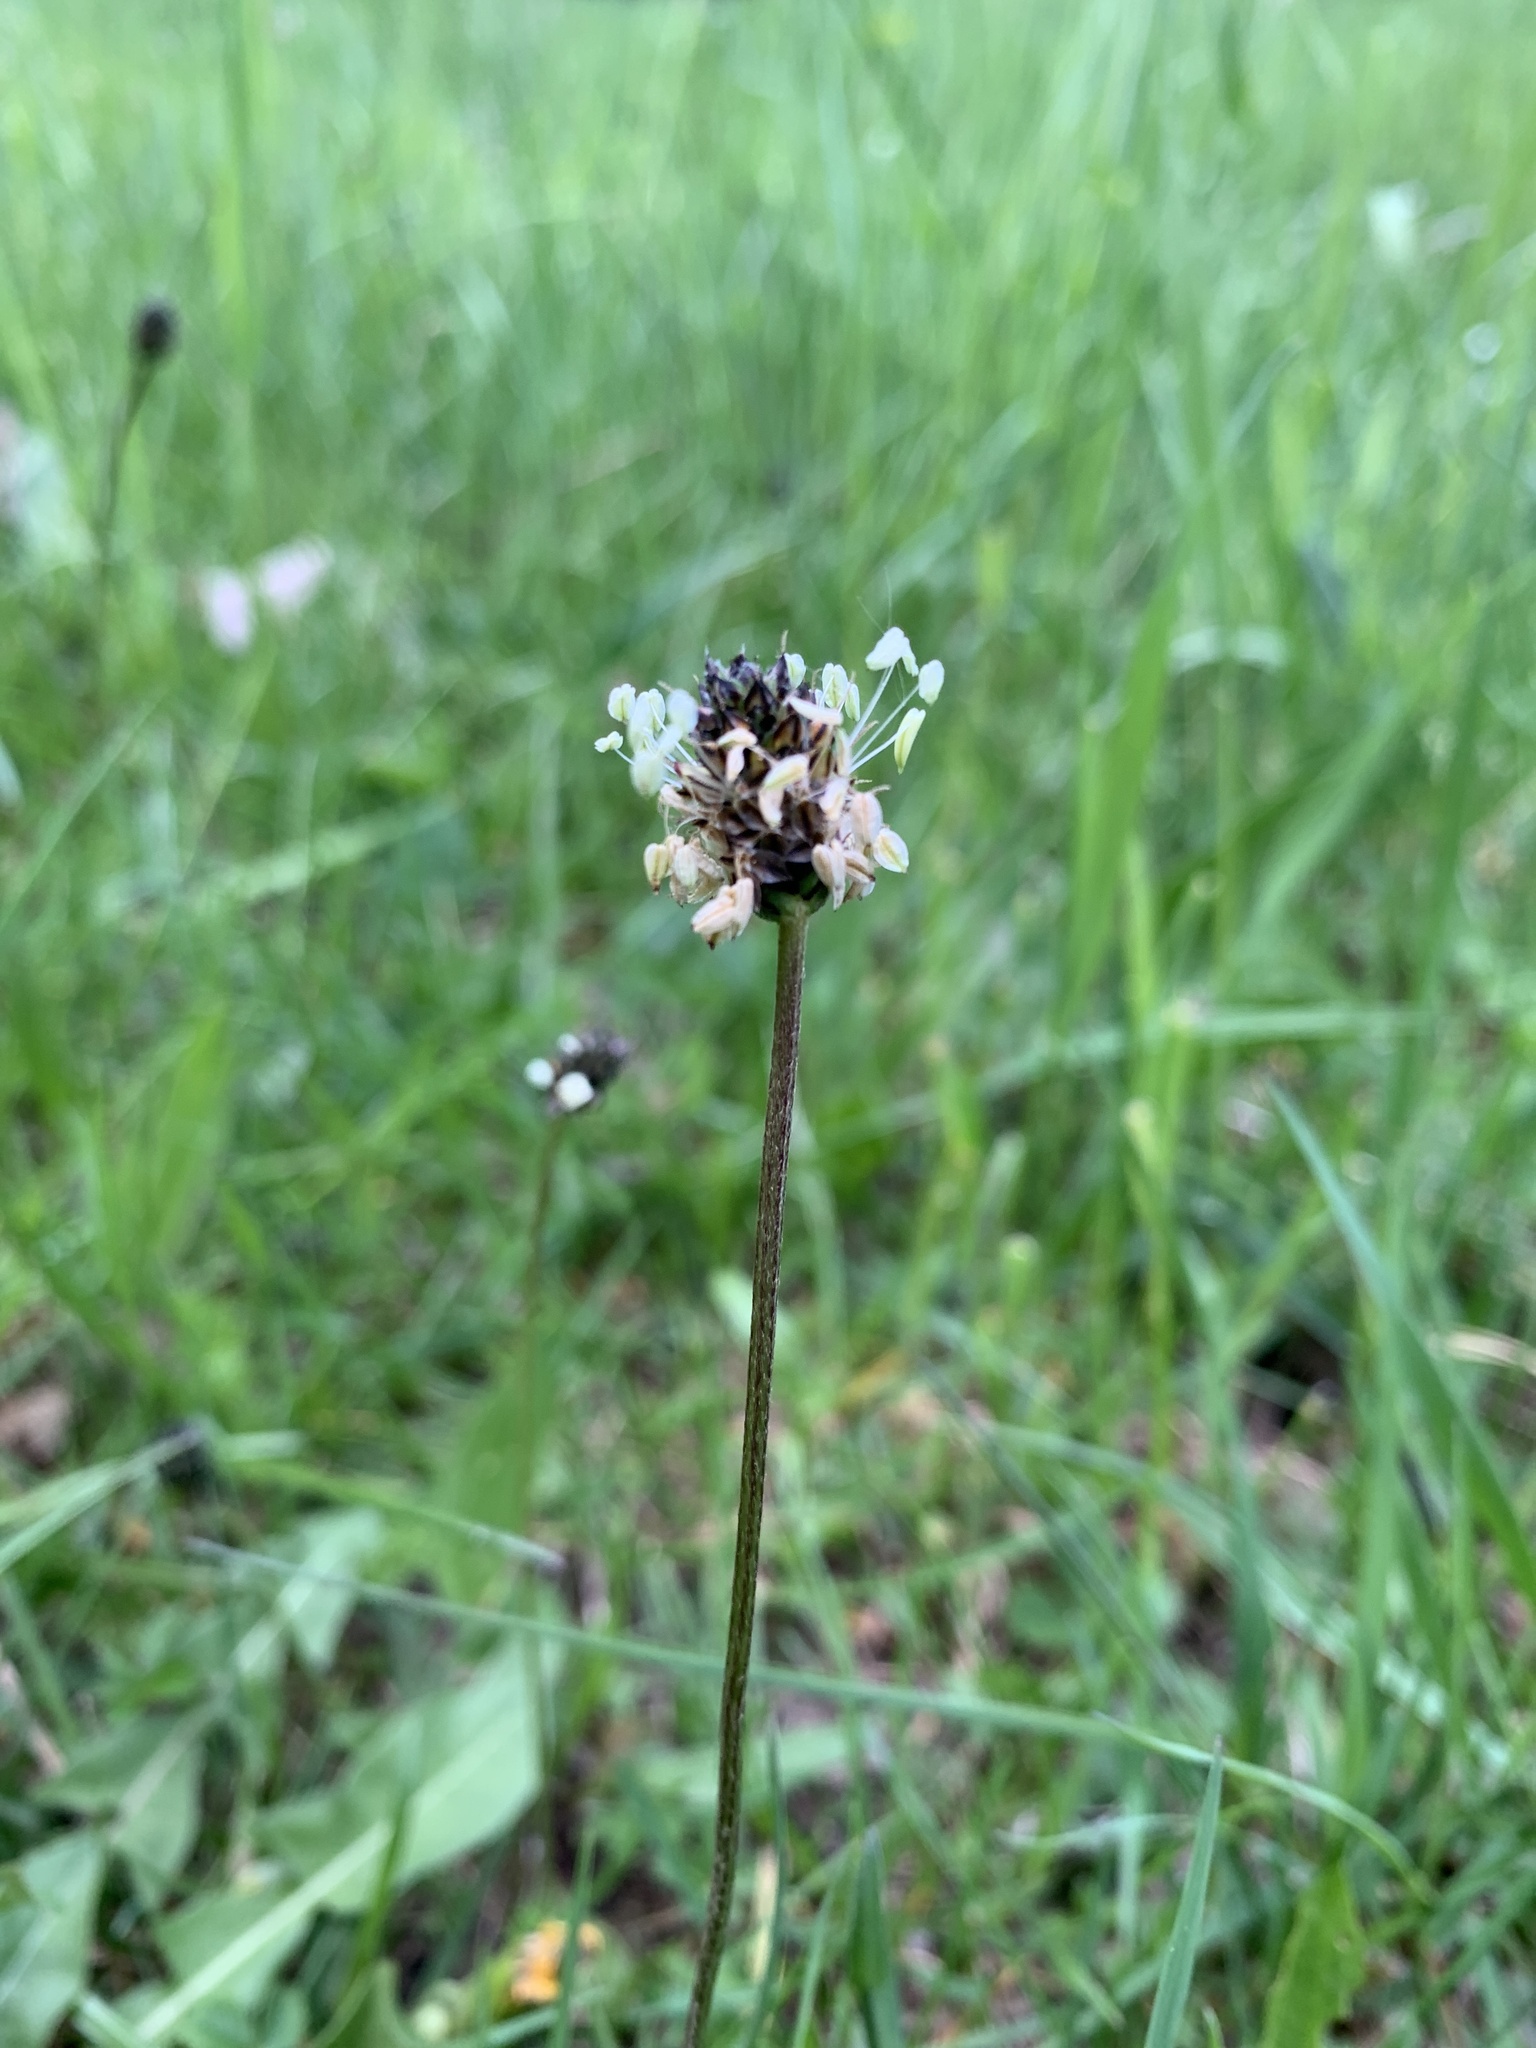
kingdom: Plantae
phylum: Tracheophyta
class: Magnoliopsida
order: Lamiales
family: Plantaginaceae
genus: Plantago
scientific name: Plantago lanceolata
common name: Ribwort plantain
